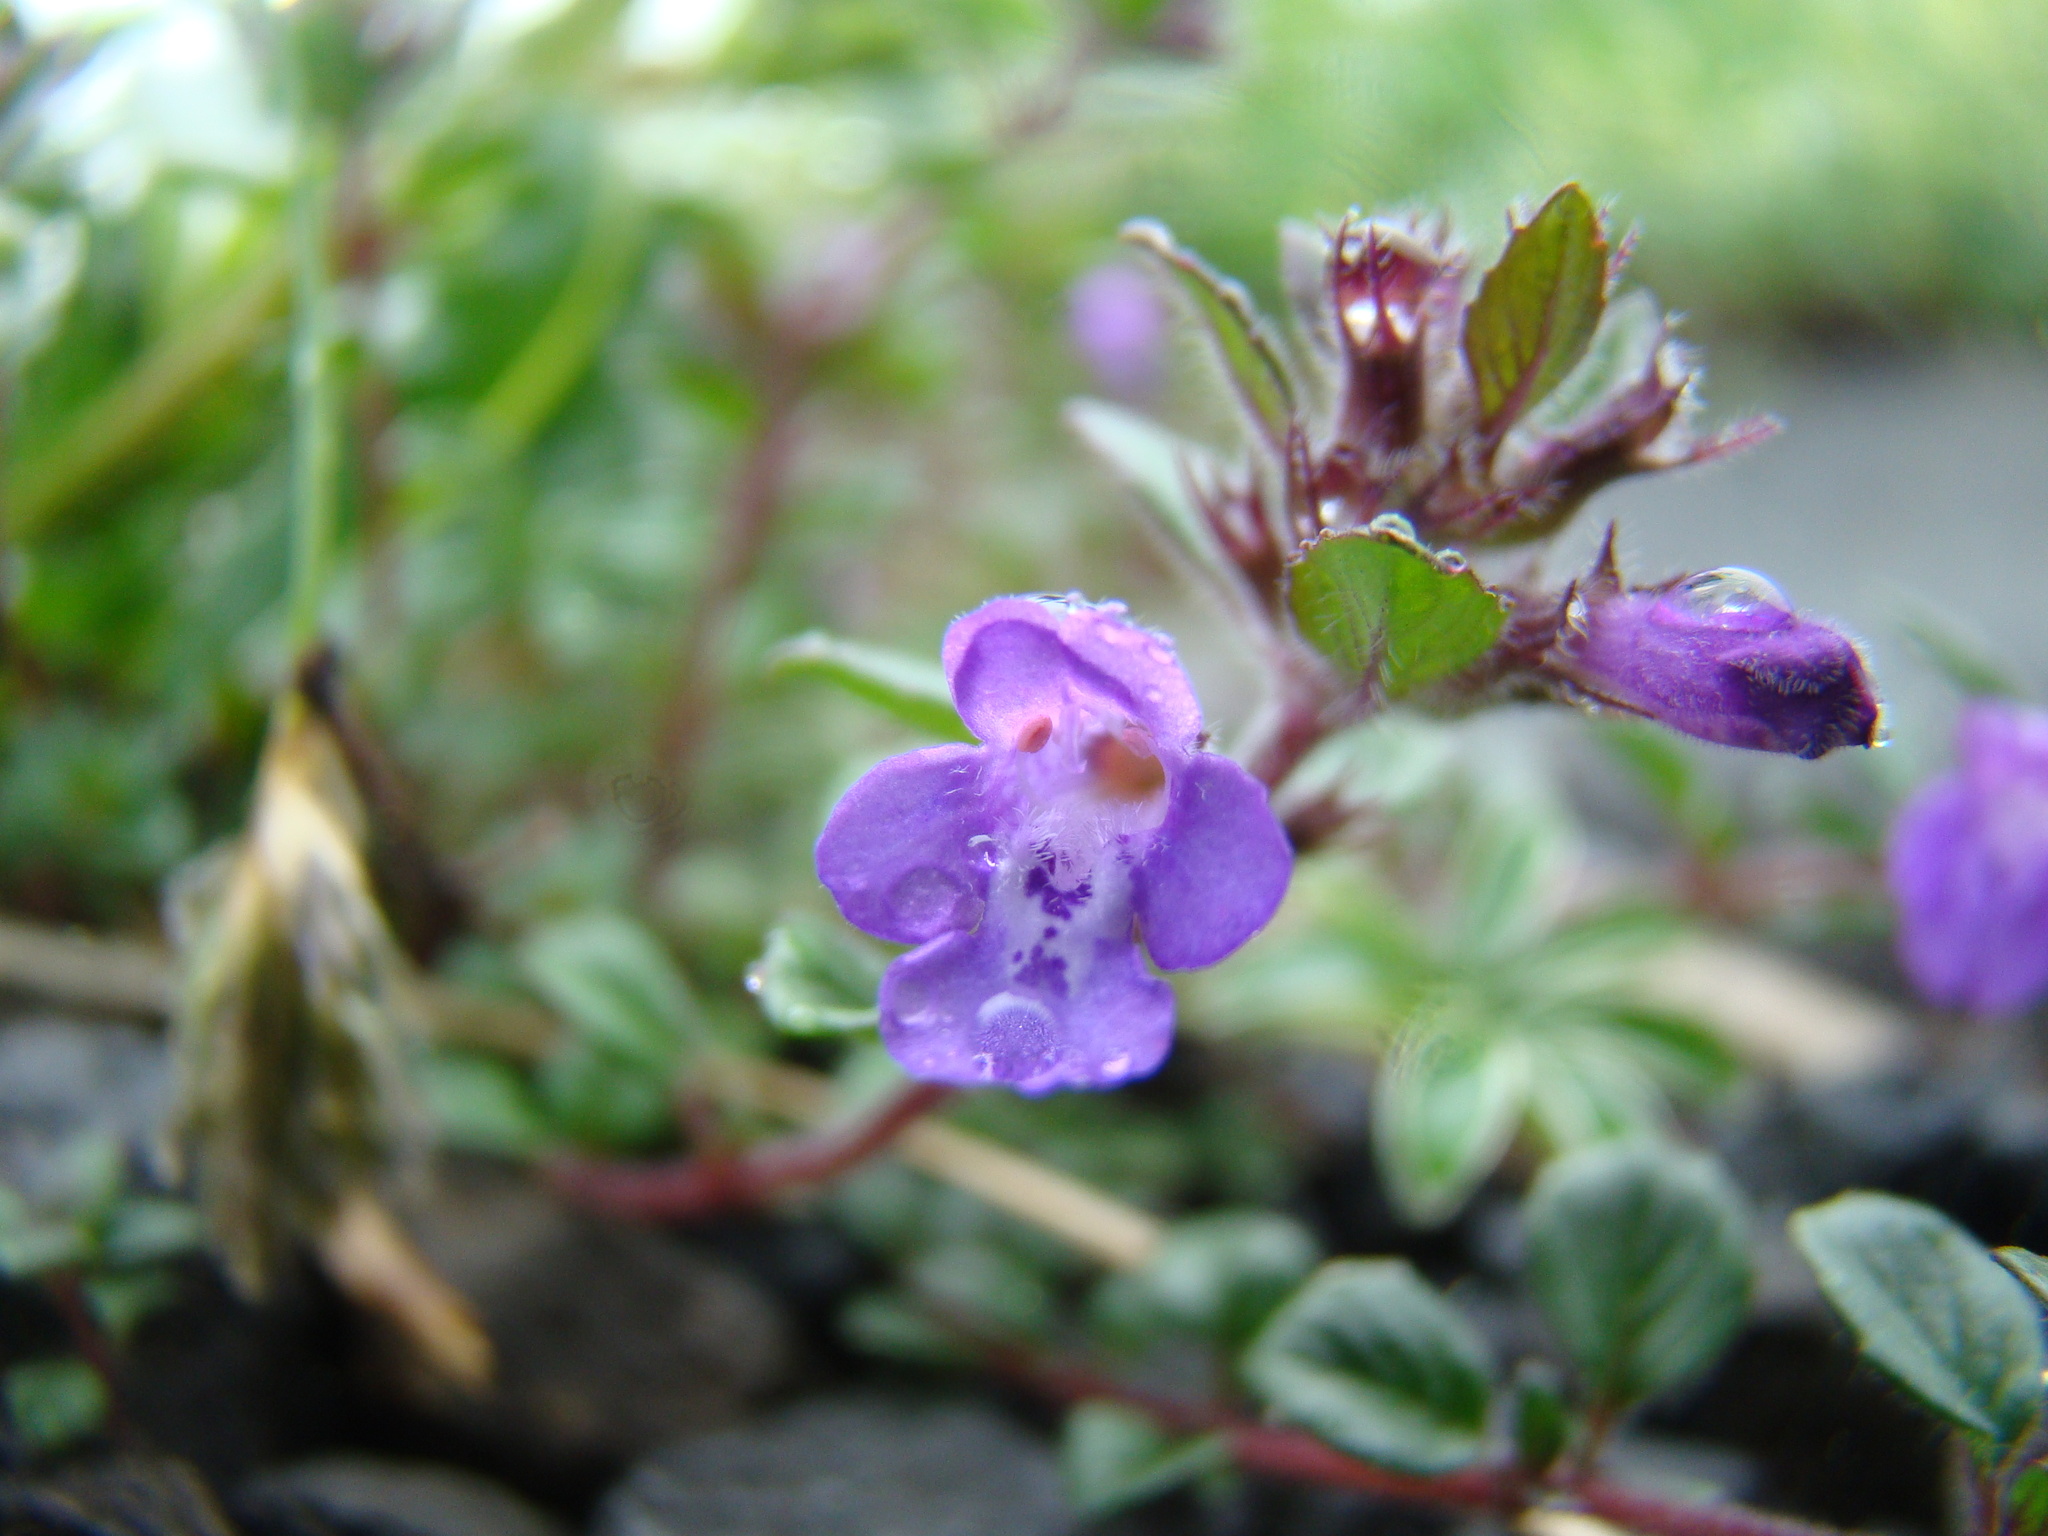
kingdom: Plantae
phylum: Tracheophyta
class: Magnoliopsida
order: Lamiales
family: Lamiaceae
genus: Clinopodium
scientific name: Clinopodium alpinum
